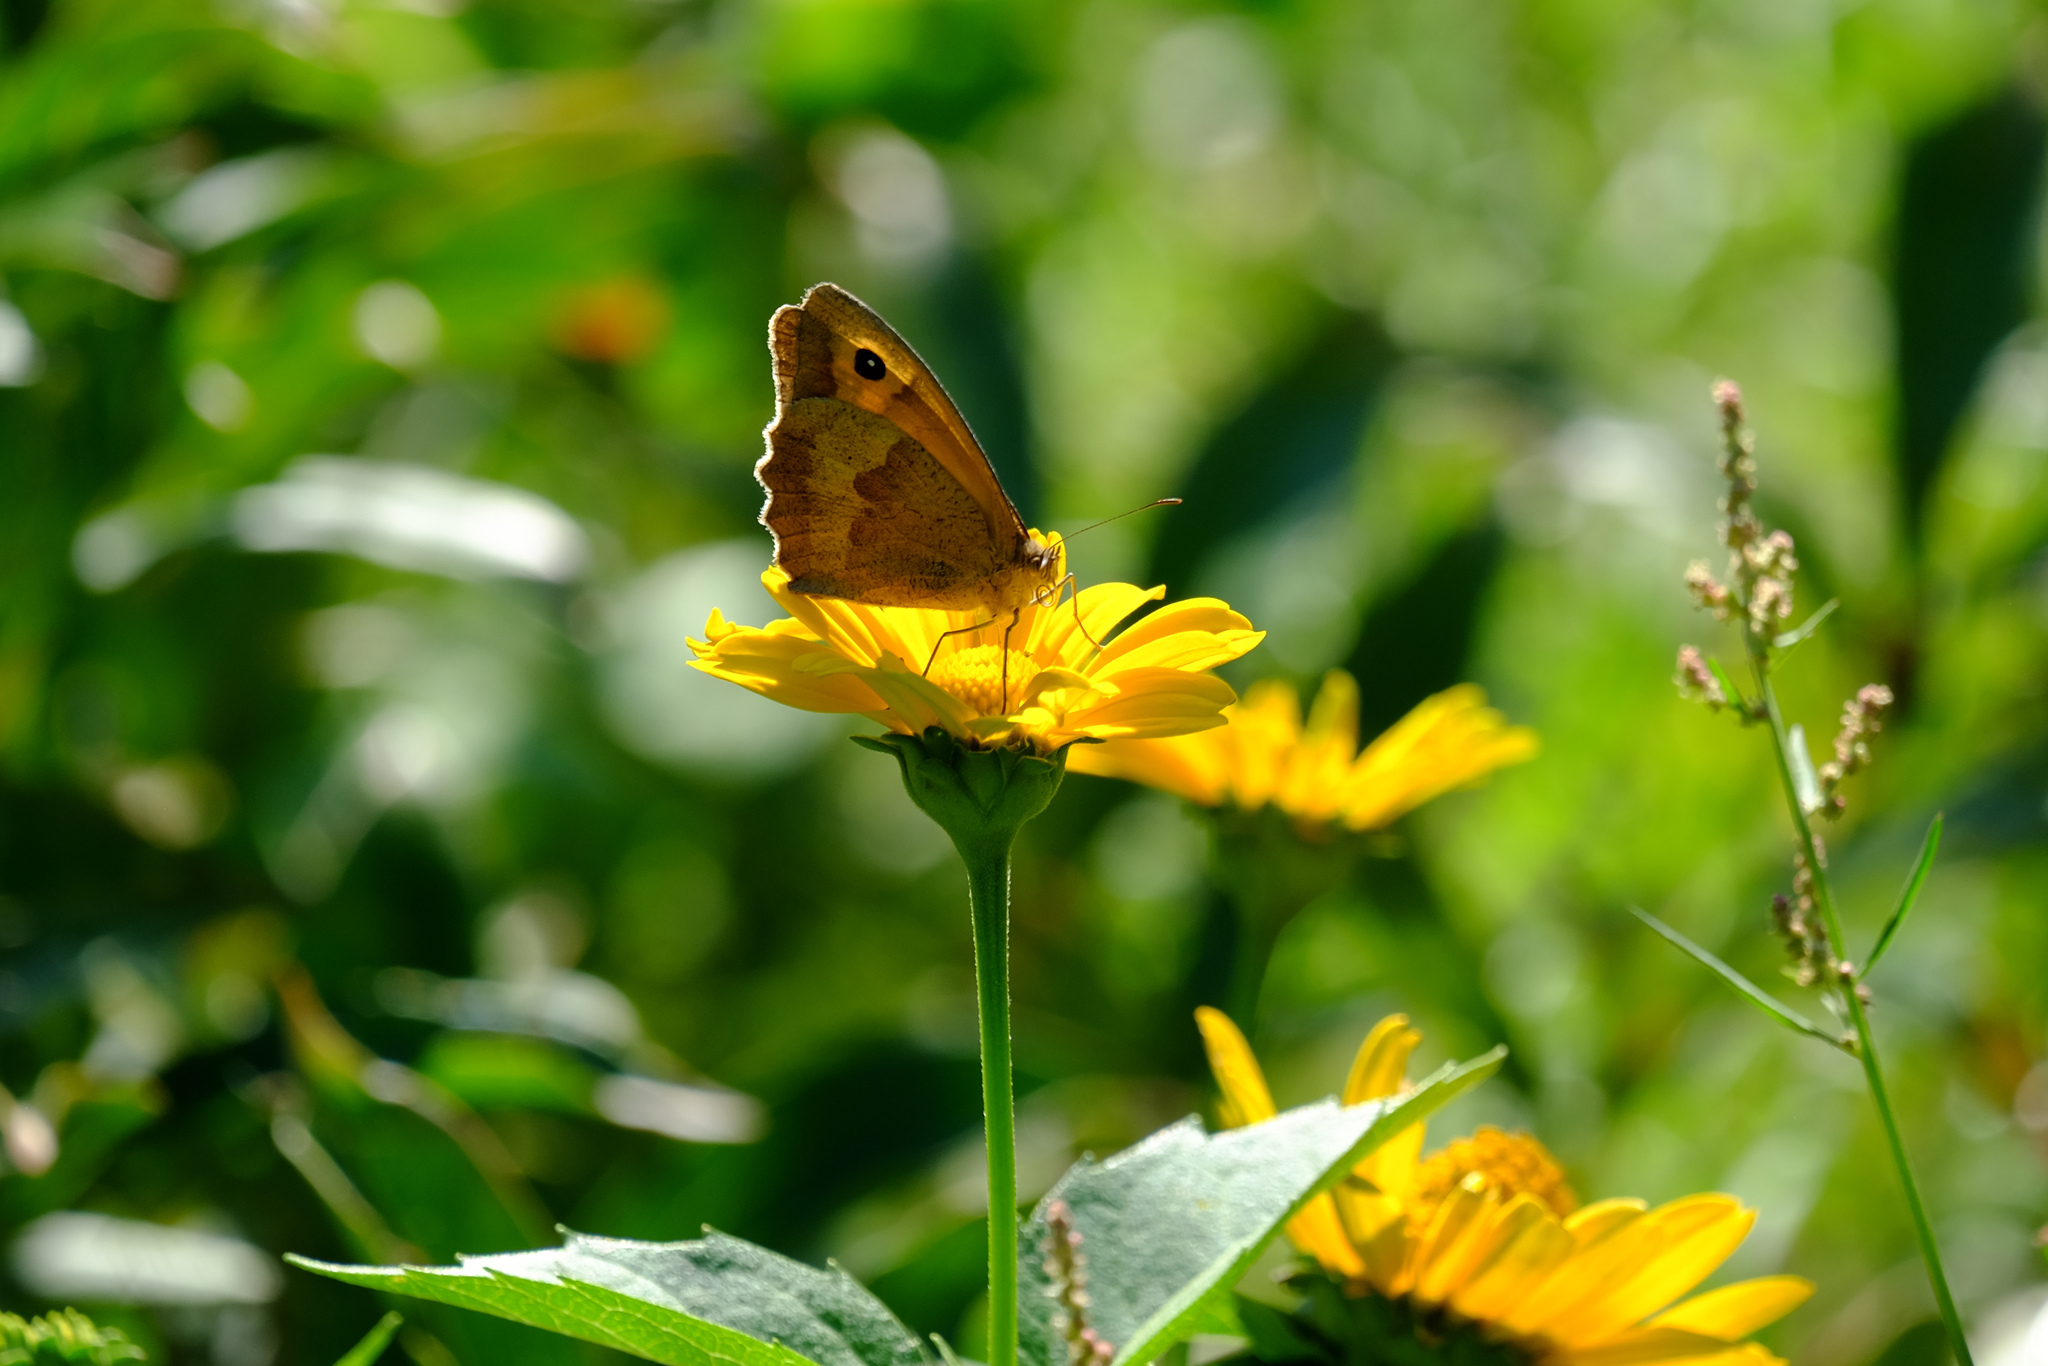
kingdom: Animalia
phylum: Arthropoda
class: Insecta
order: Lepidoptera
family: Nymphalidae
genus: Maniola
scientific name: Maniola jurtina
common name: Meadow brown
